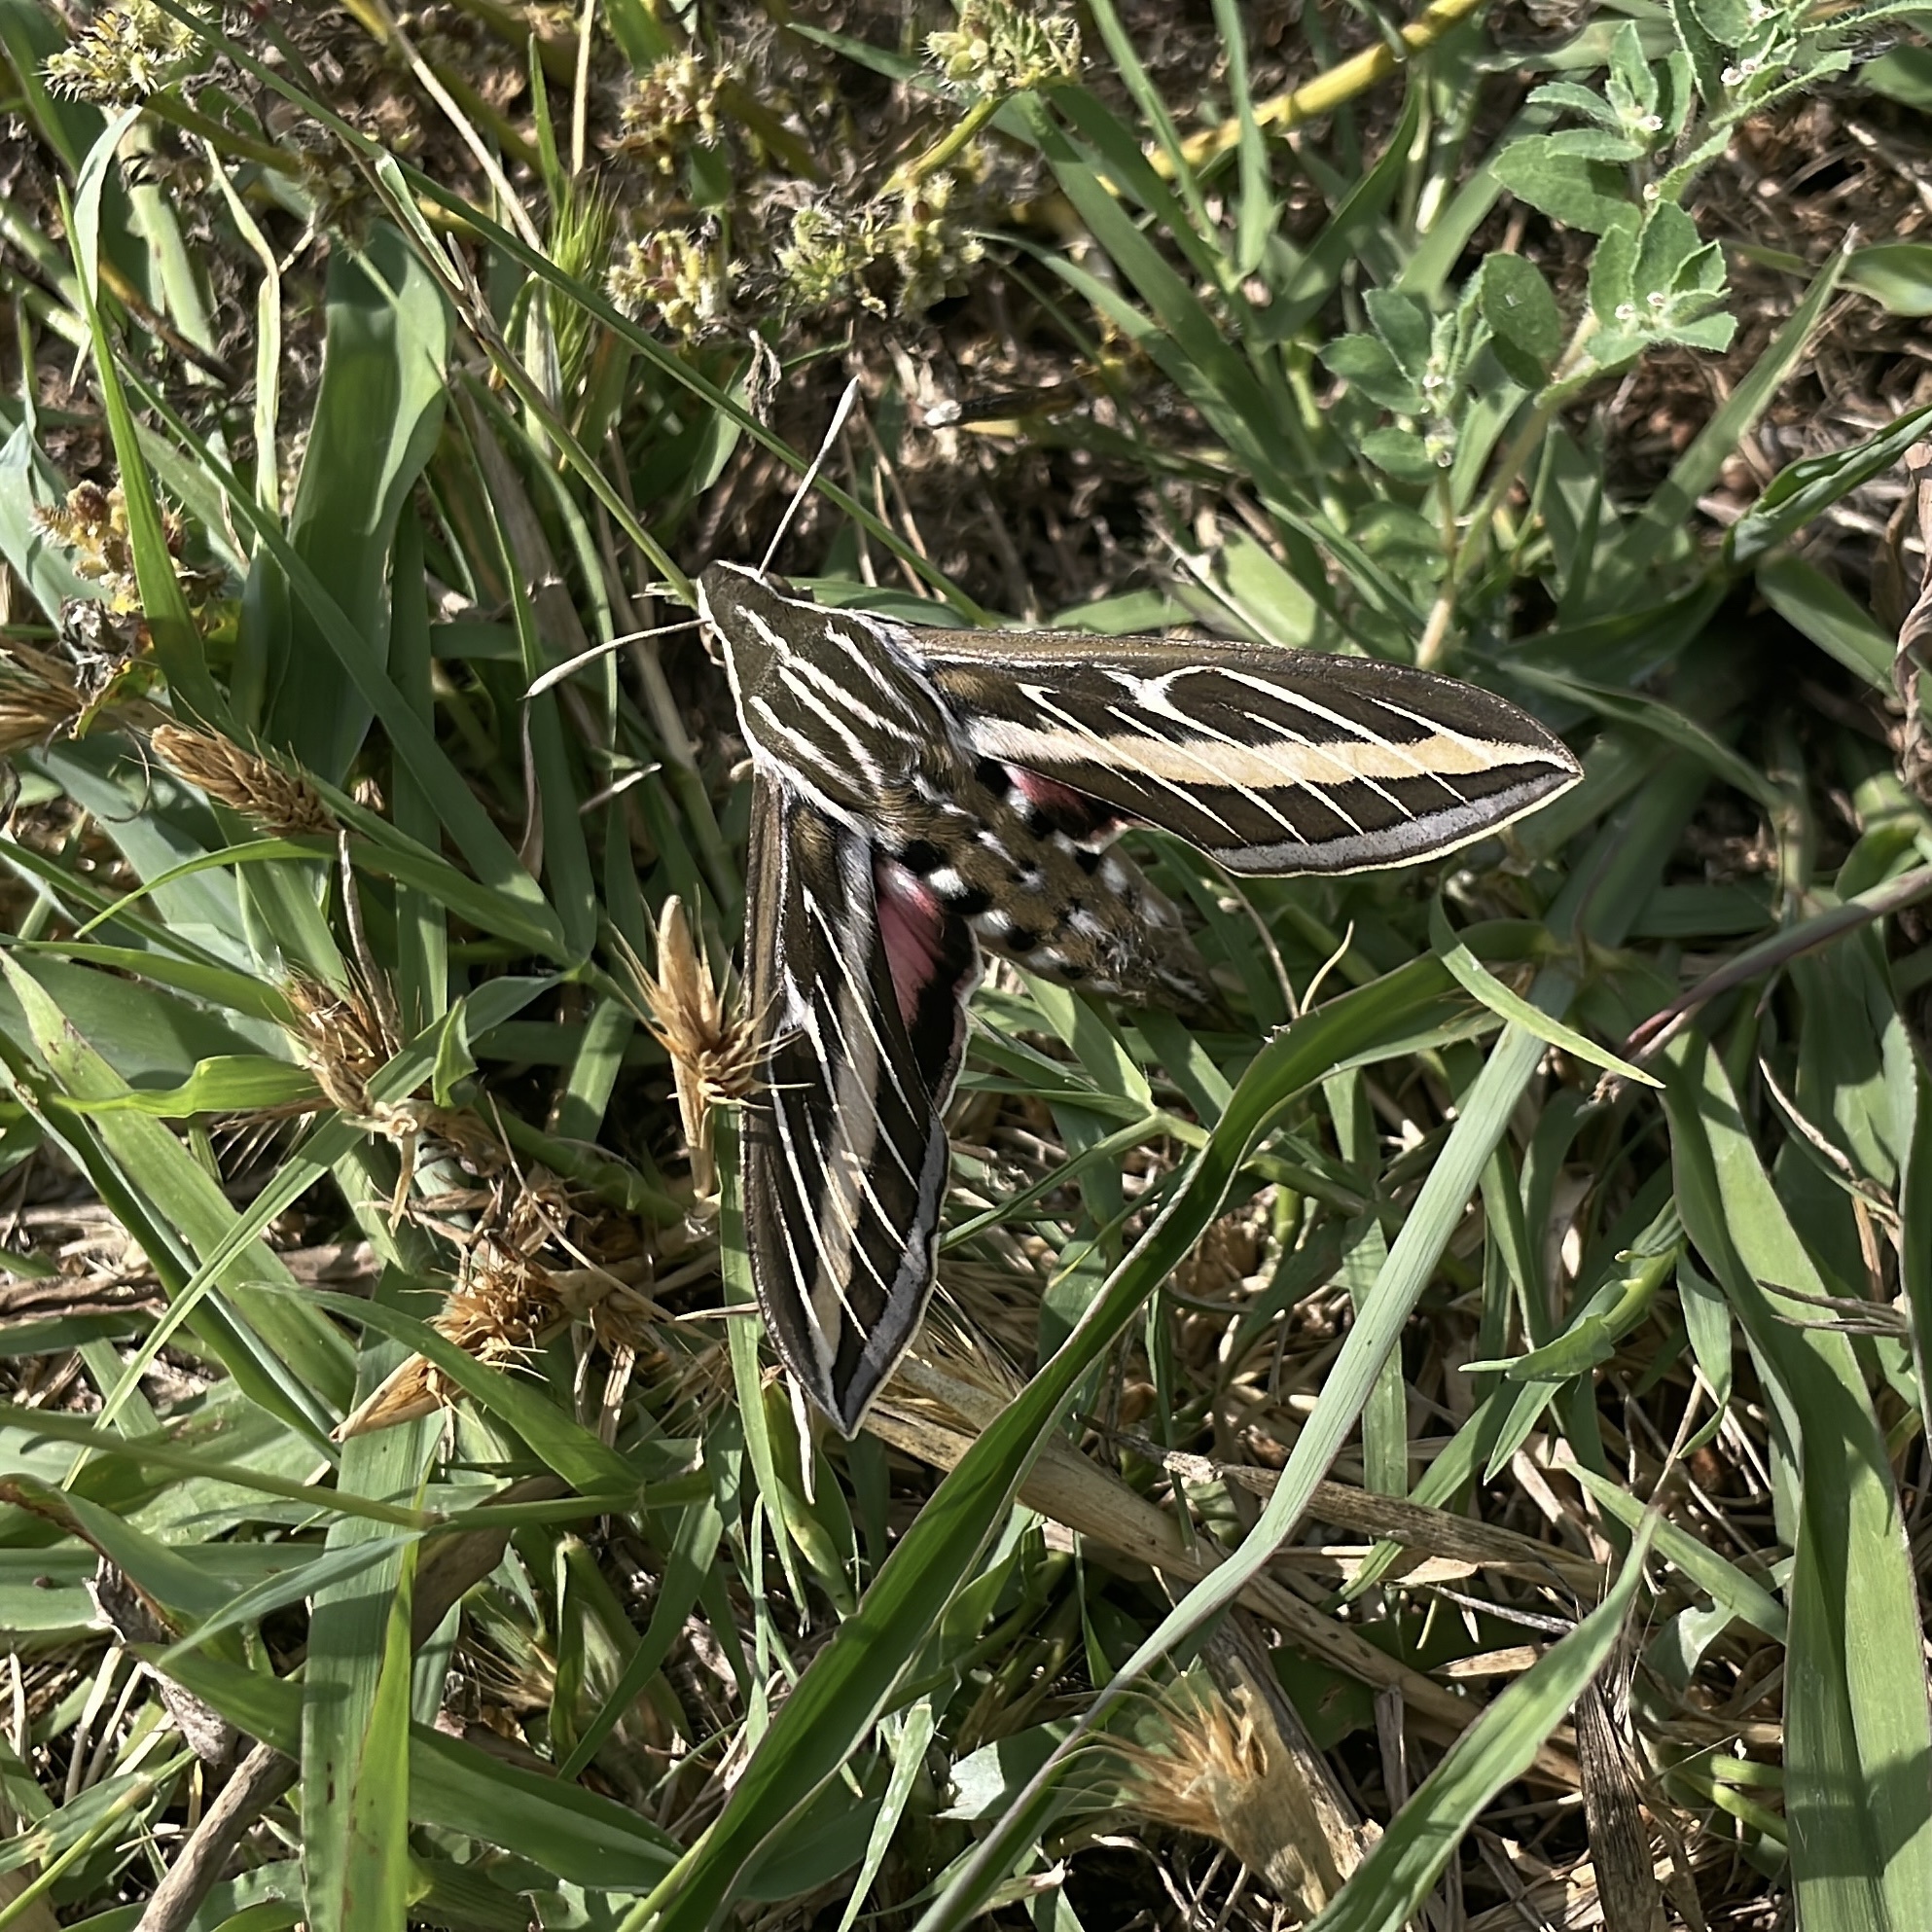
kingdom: Animalia
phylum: Arthropoda
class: Insecta
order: Lepidoptera
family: Sphingidae
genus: Hyles
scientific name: Hyles lineata
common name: White-lined sphinx
